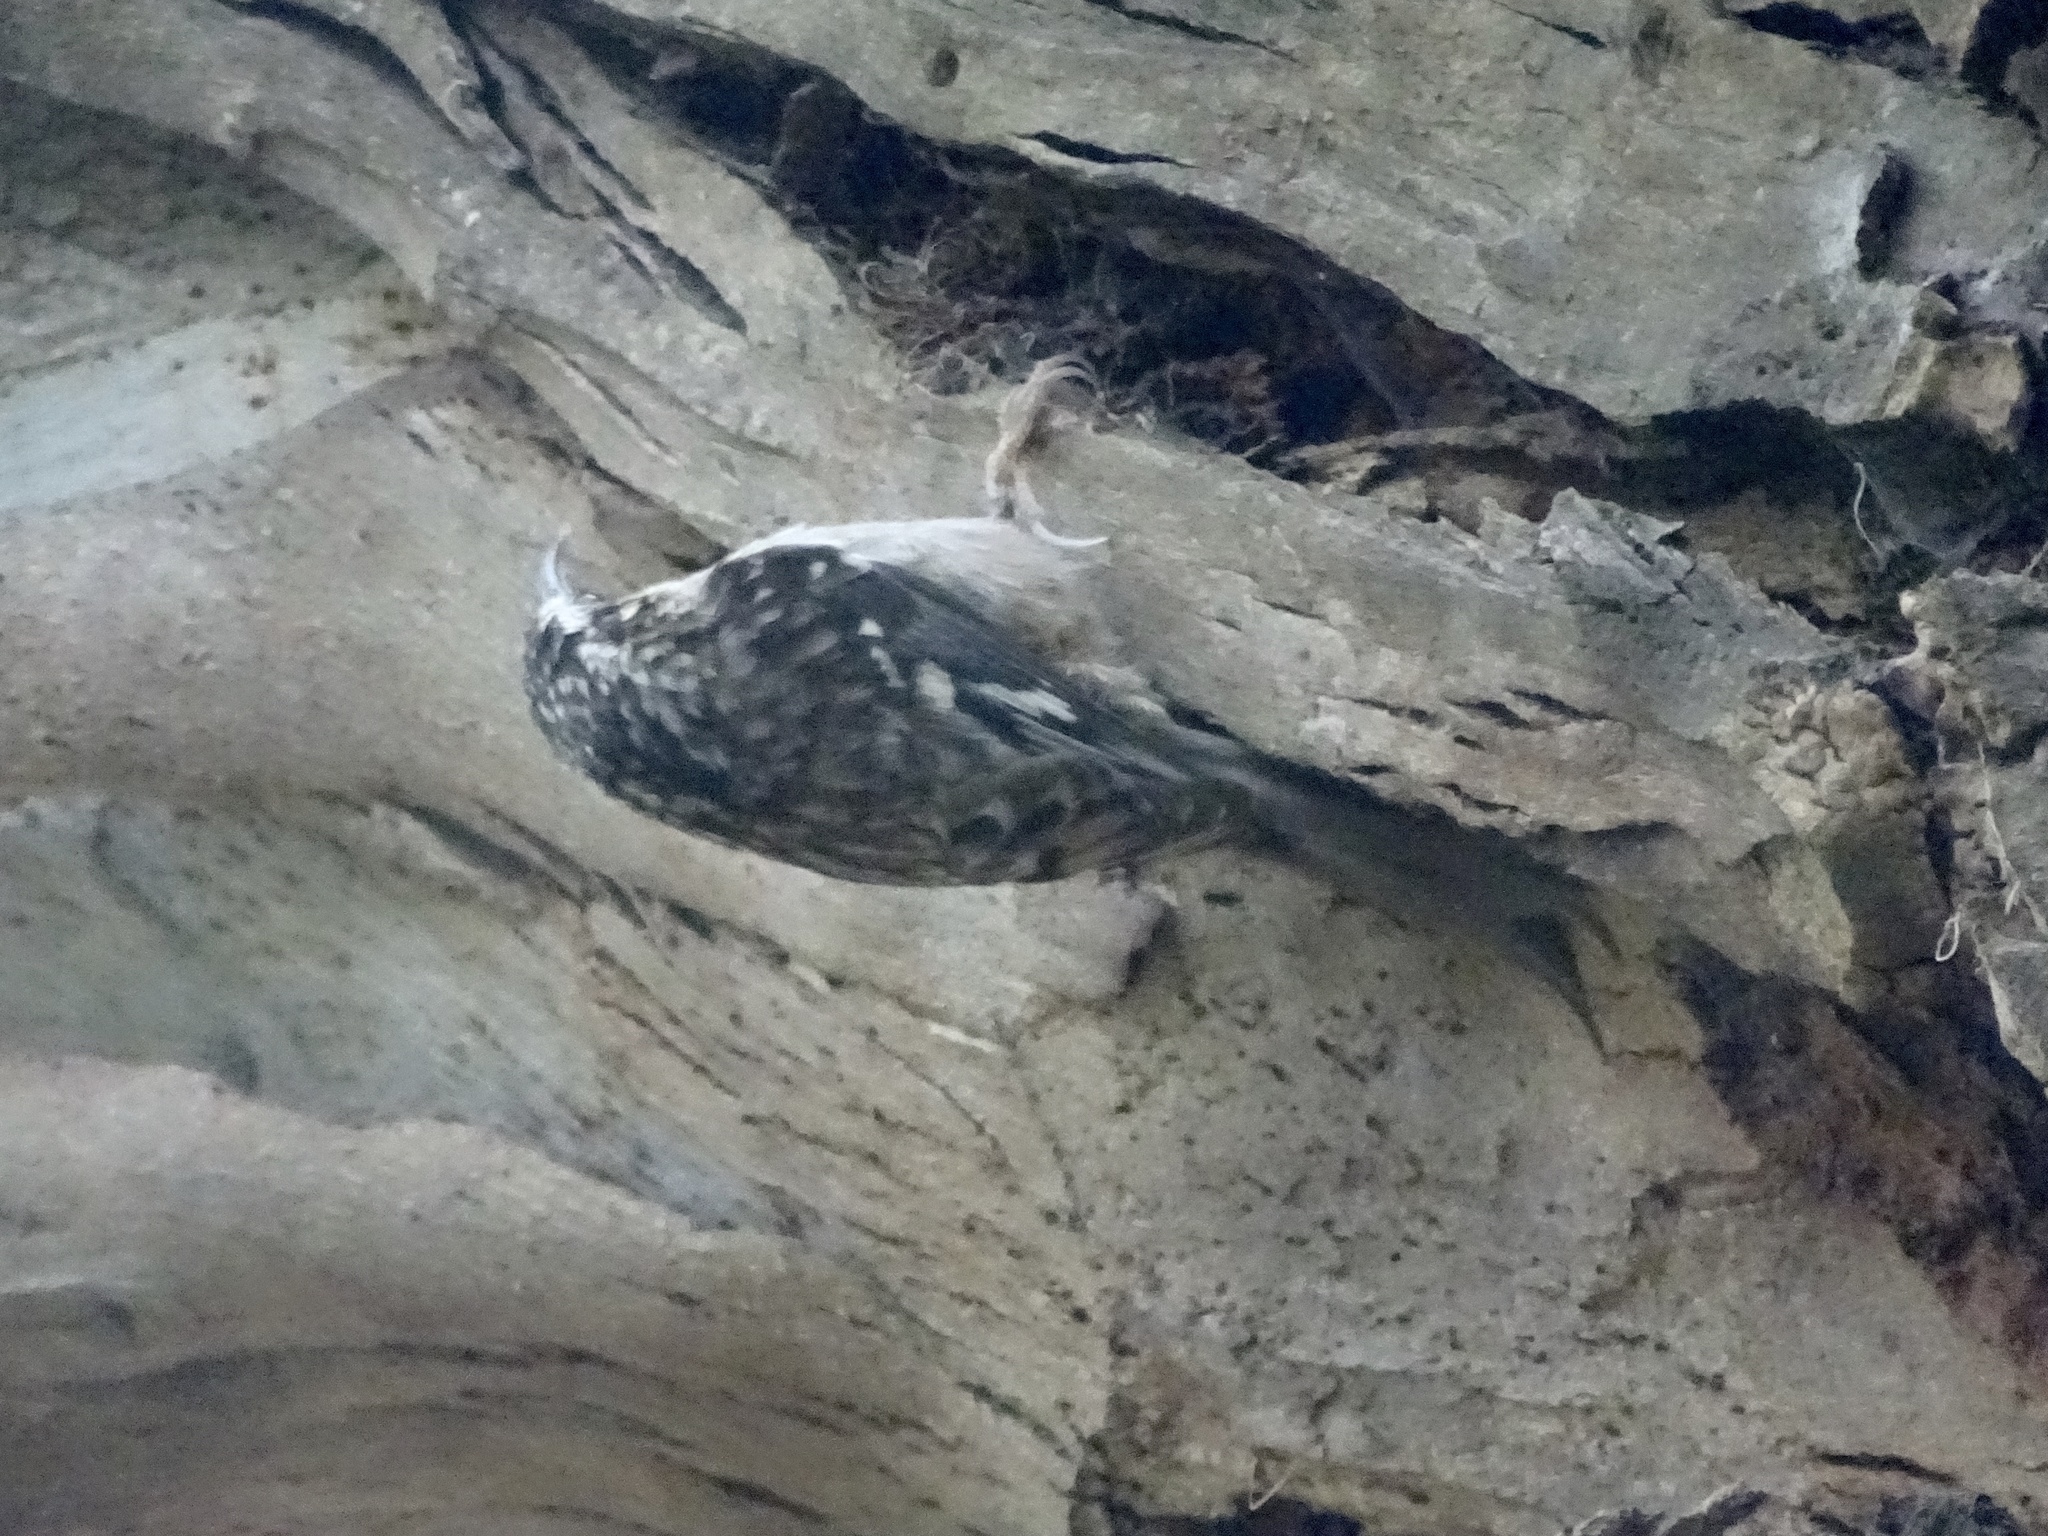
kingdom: Animalia
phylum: Chordata
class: Aves
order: Passeriformes
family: Certhiidae
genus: Certhia
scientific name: Certhia americana
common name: Brown creeper
